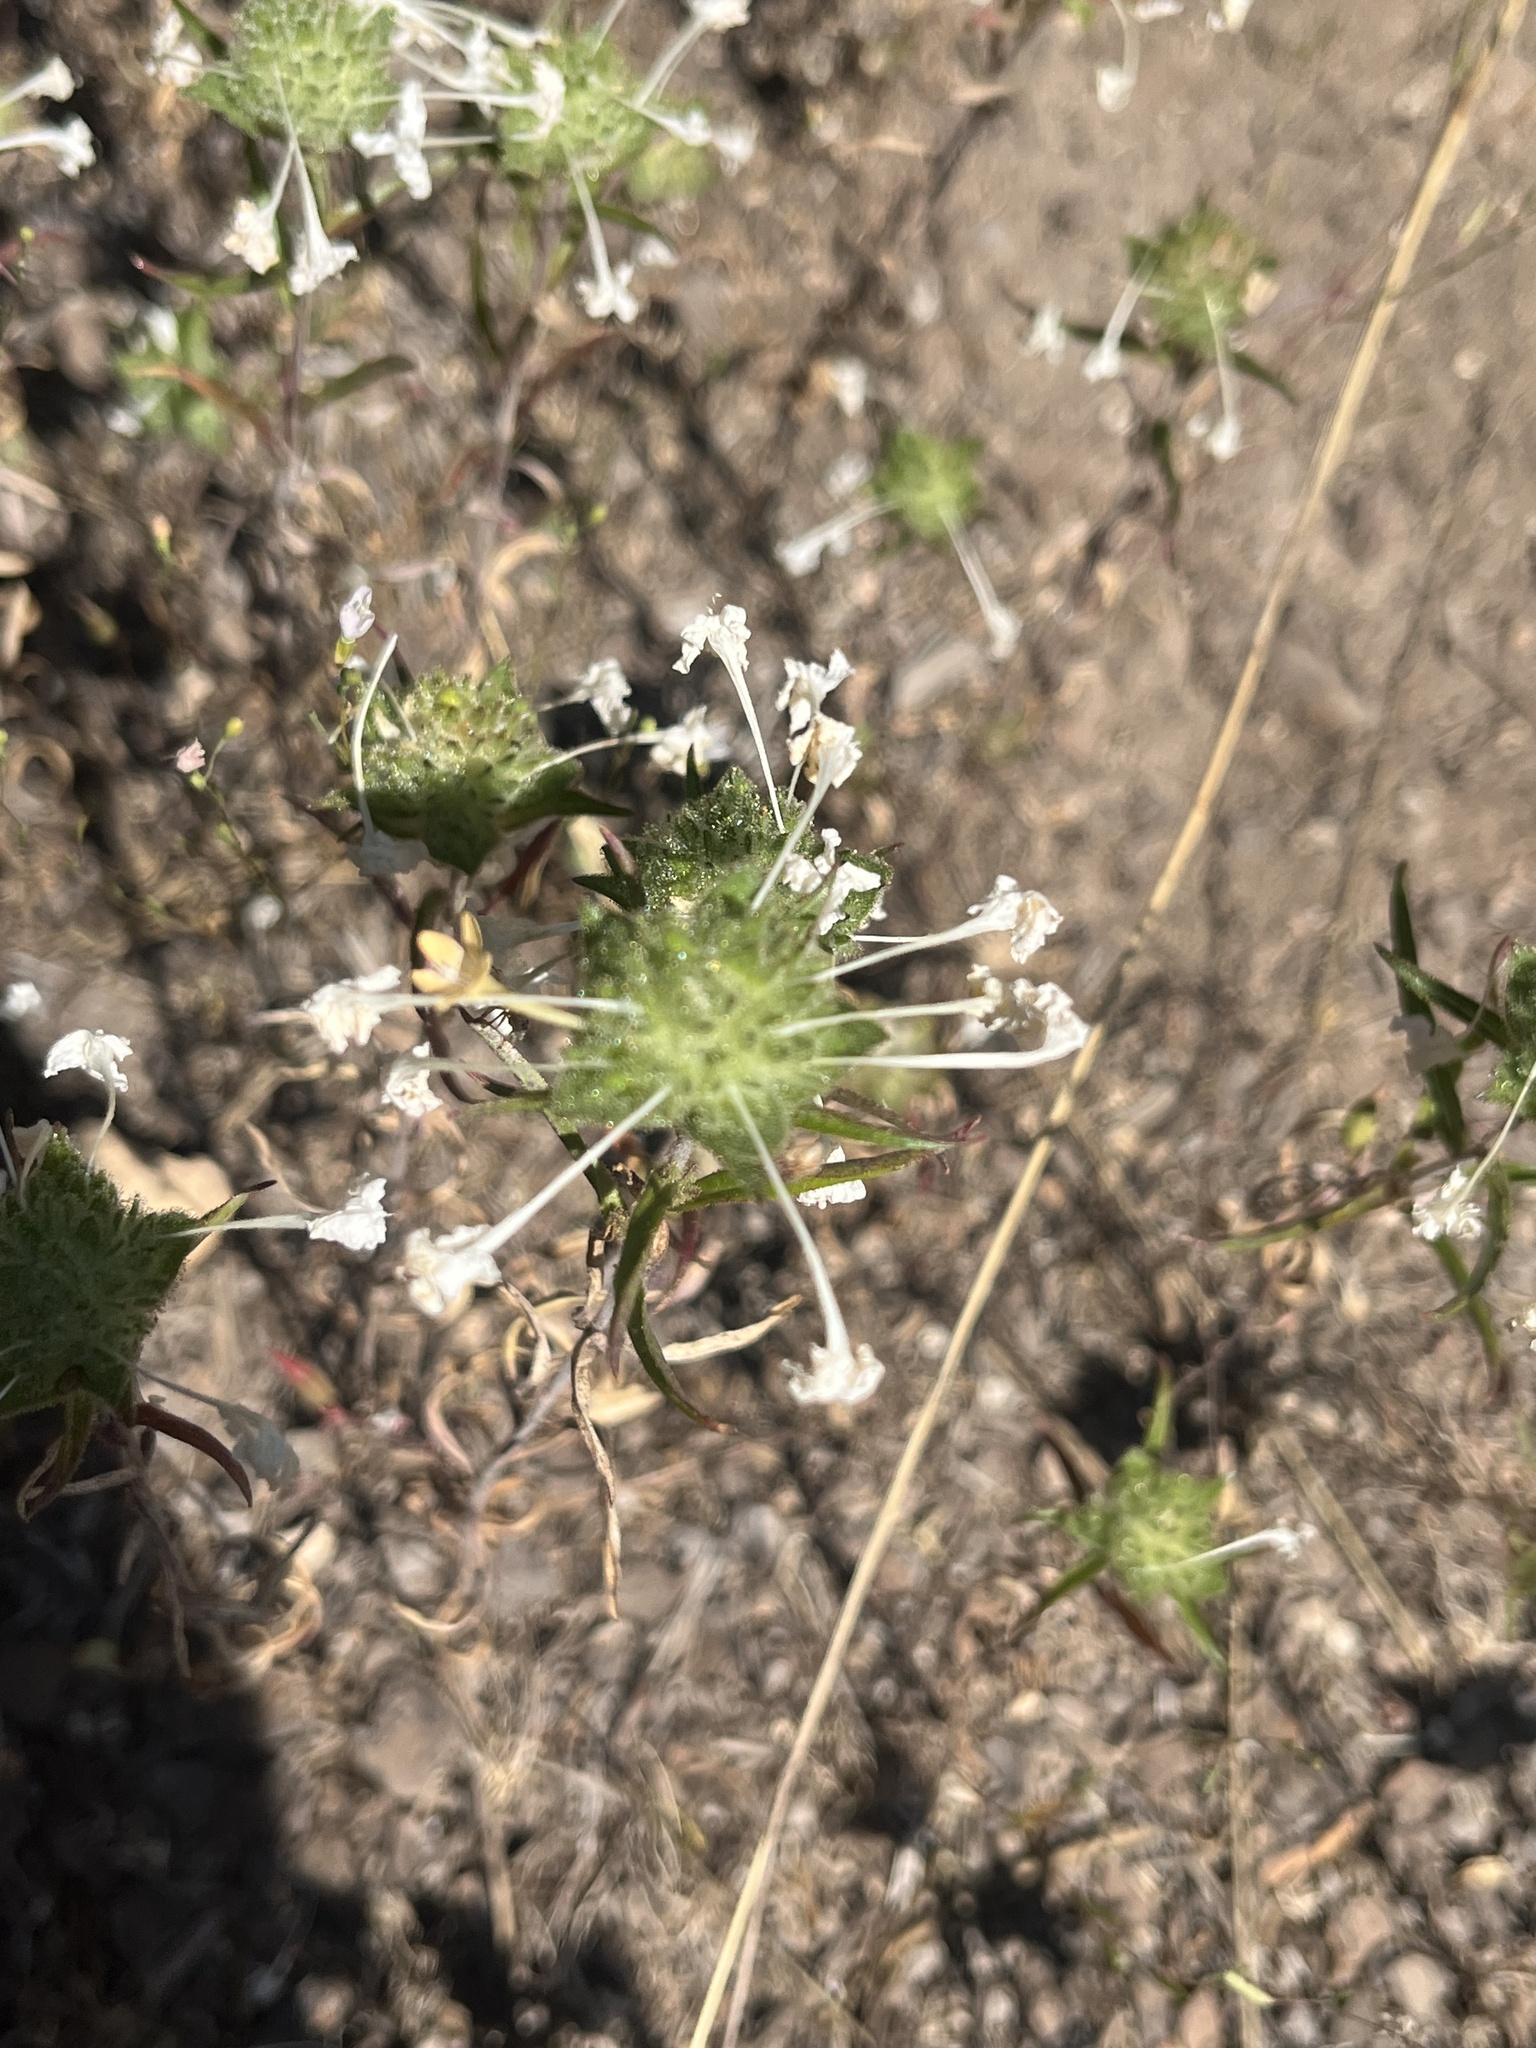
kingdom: Plantae
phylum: Tracheophyta
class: Magnoliopsida
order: Ericales
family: Polemoniaceae
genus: Collomia
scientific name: Collomia grandiflora
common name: California strawflower
